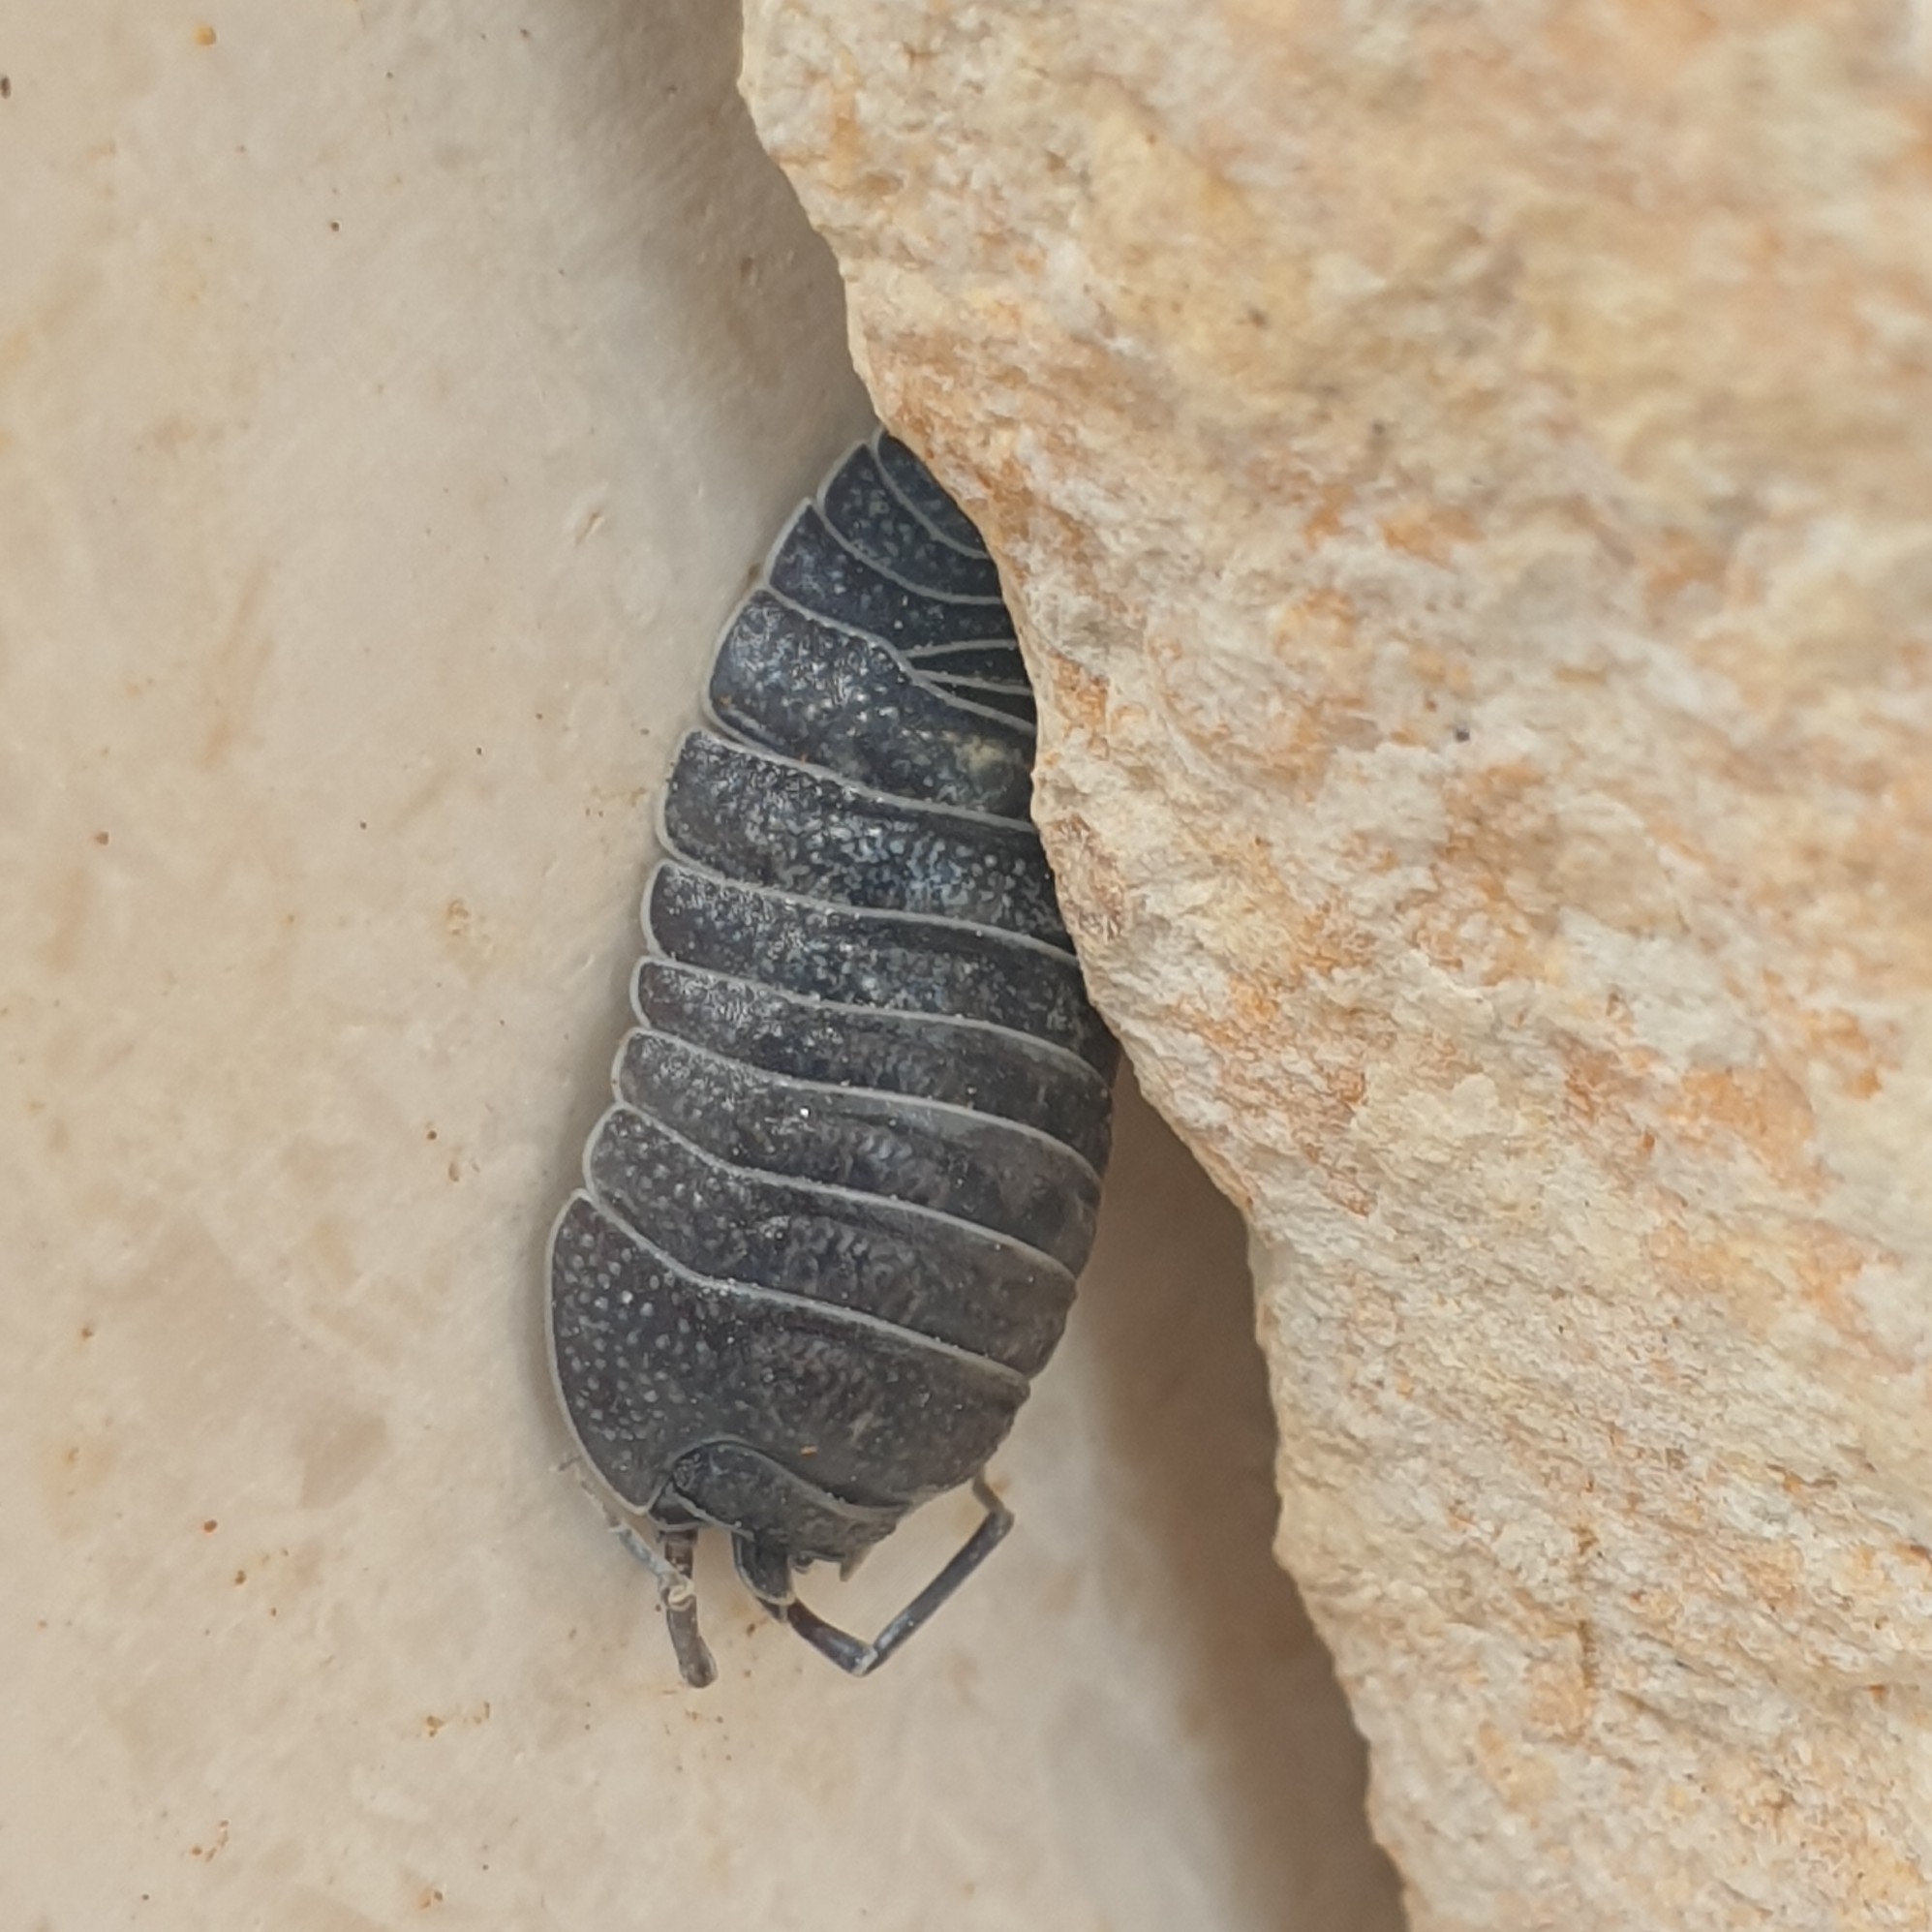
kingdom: Animalia
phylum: Arthropoda
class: Malacostraca
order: Isopoda
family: Armadillidiidae
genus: Armadillidium
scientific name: Armadillidium pallasii
